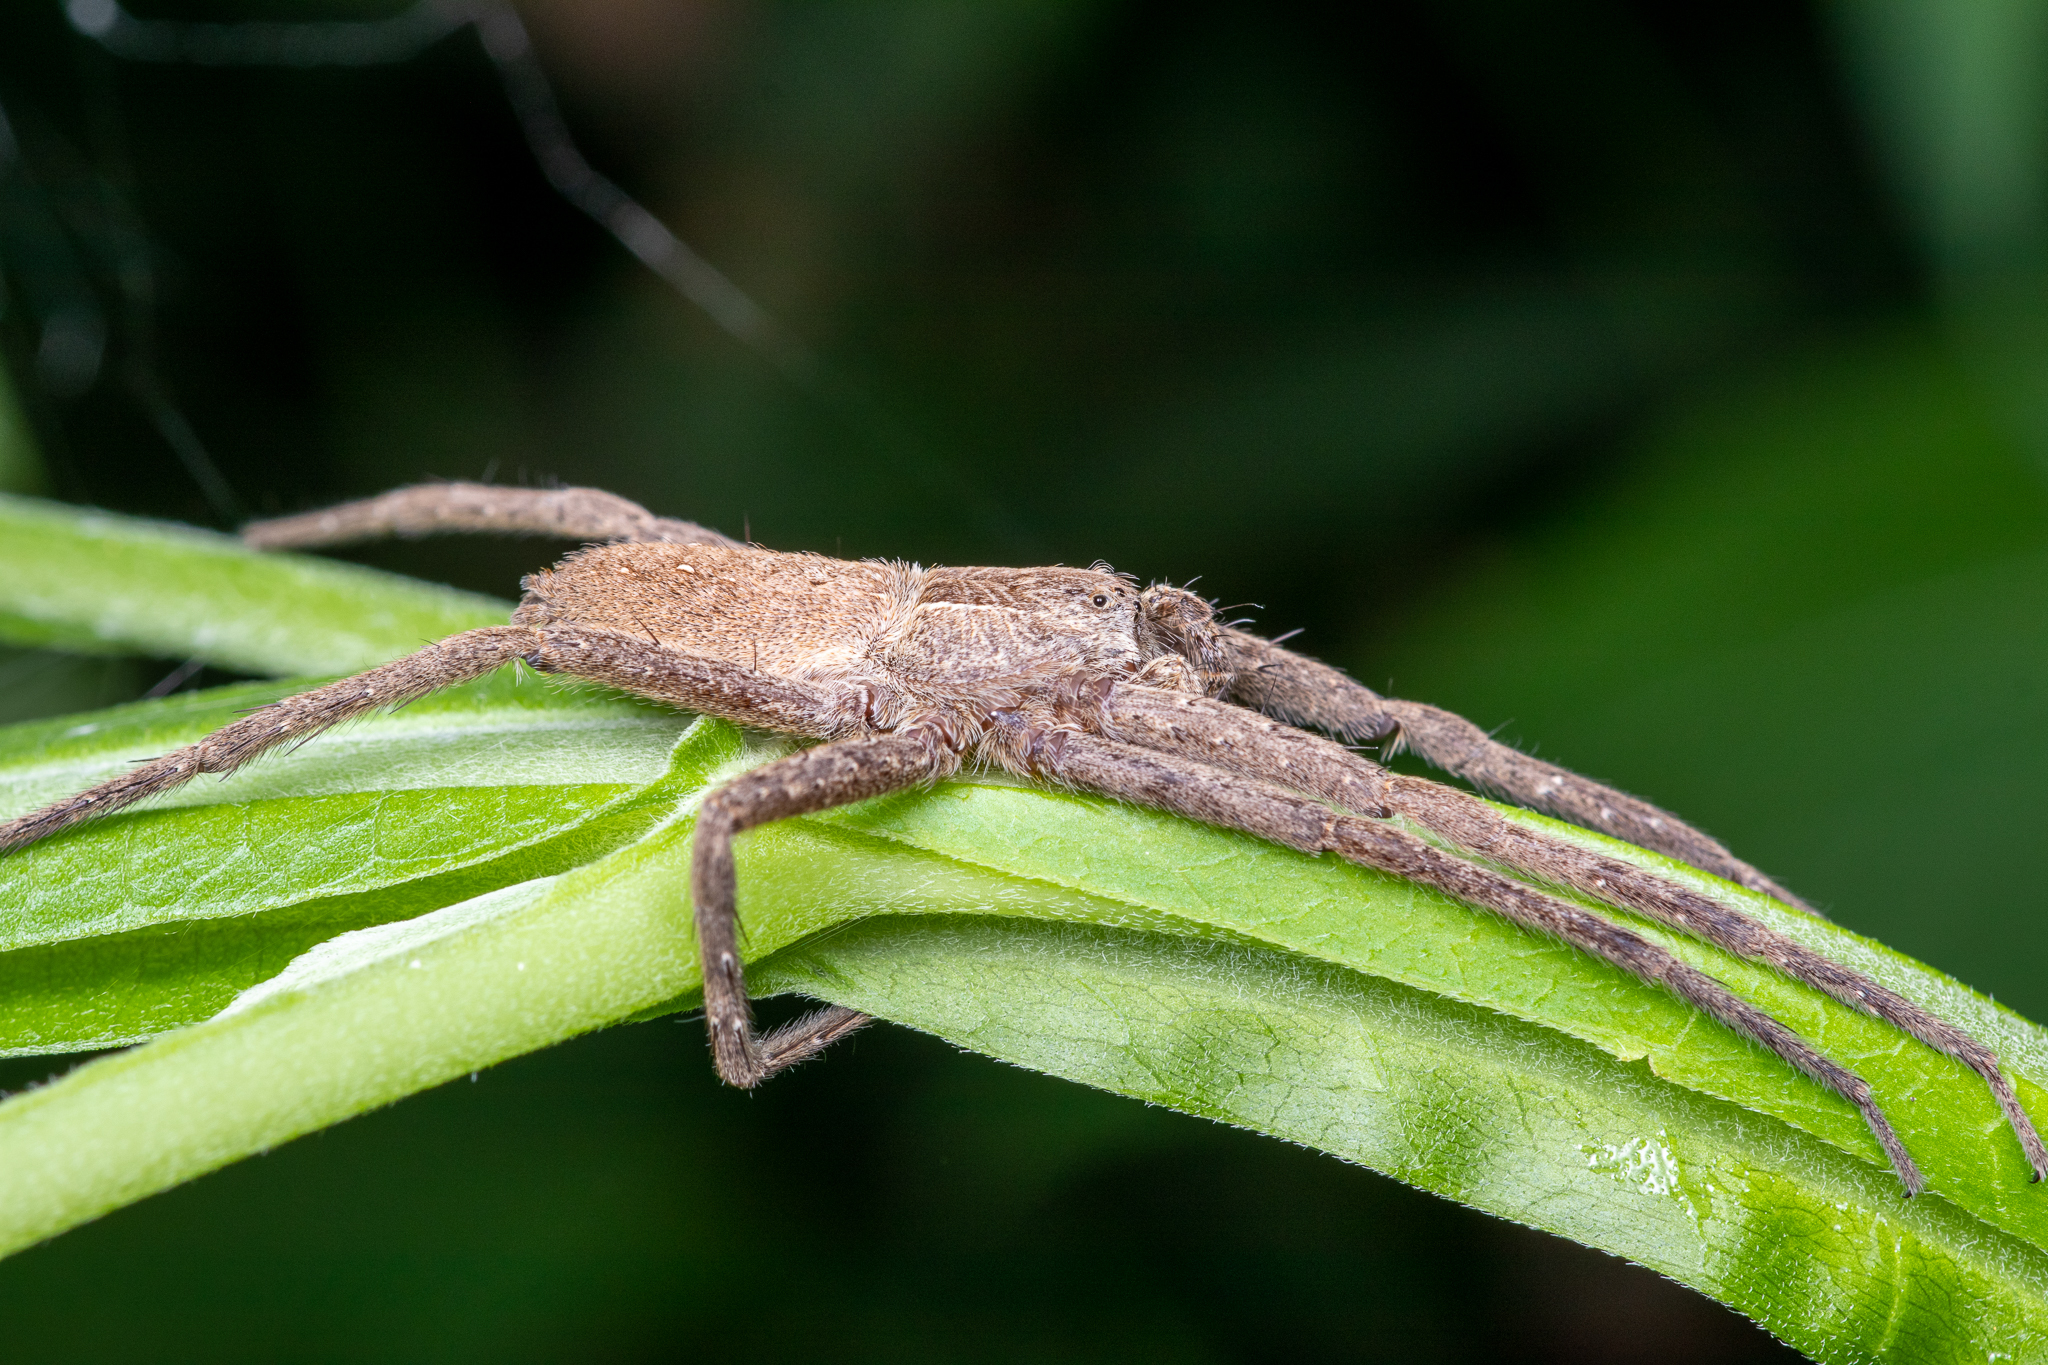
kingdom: Animalia
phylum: Arthropoda
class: Arachnida
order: Araneae
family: Pisauridae
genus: Pisaurina
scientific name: Pisaurina mira
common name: American nursery web spider
